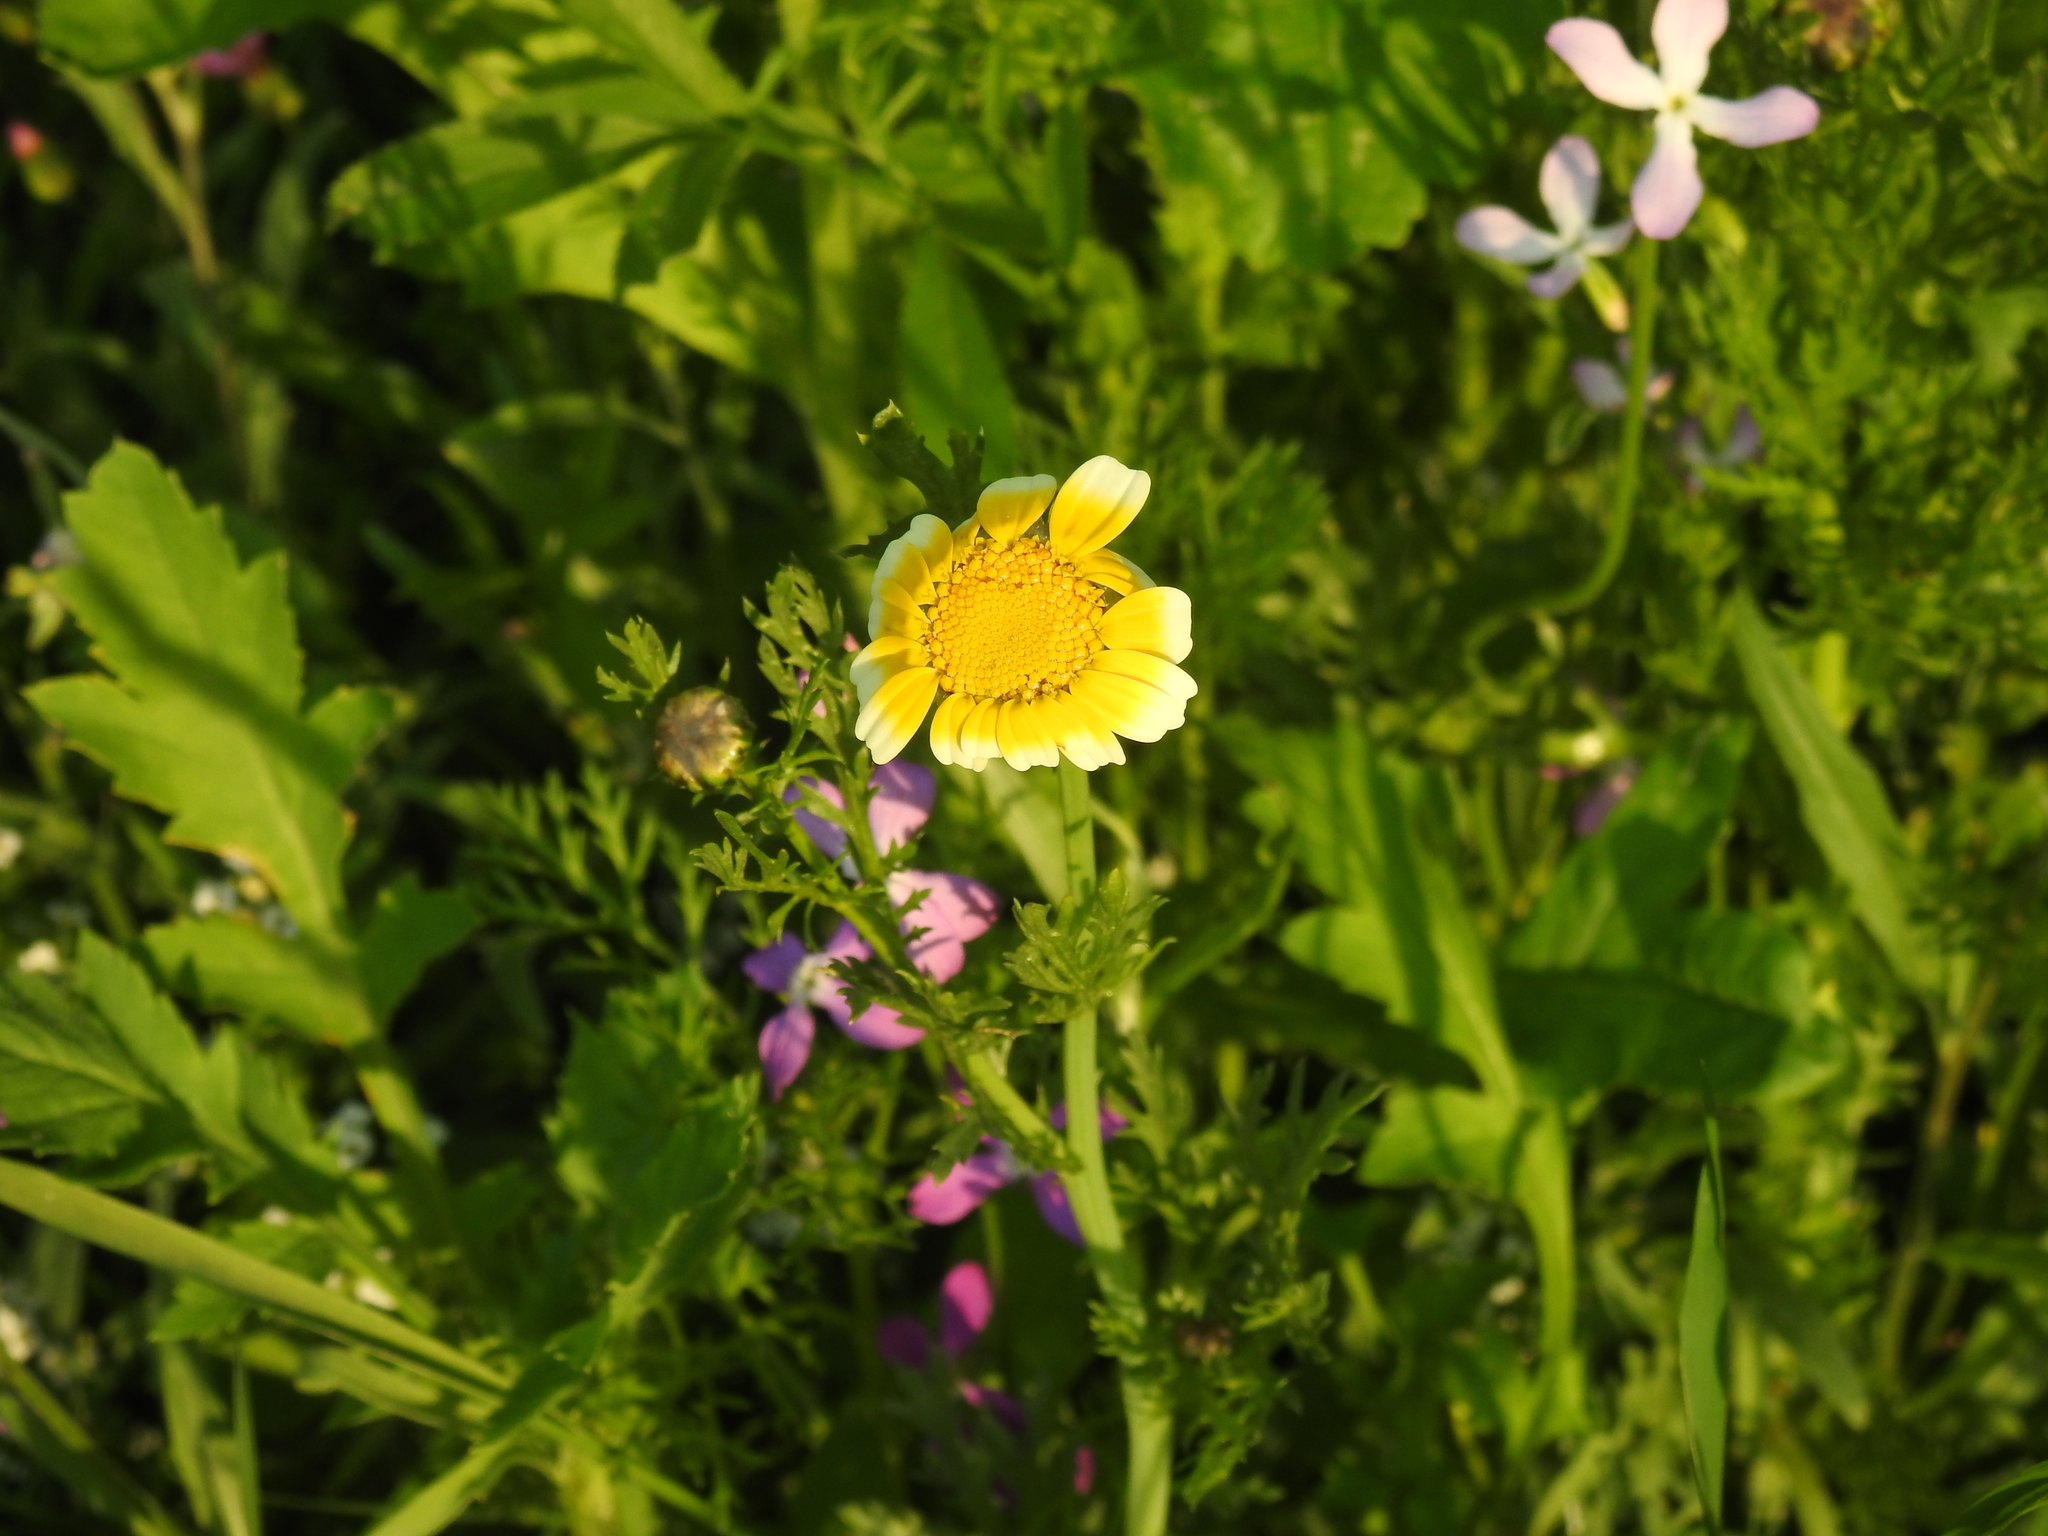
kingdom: Plantae
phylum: Tracheophyta
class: Magnoliopsida
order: Asterales
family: Asteraceae
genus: Glebionis
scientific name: Glebionis coronaria
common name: Crowndaisy
